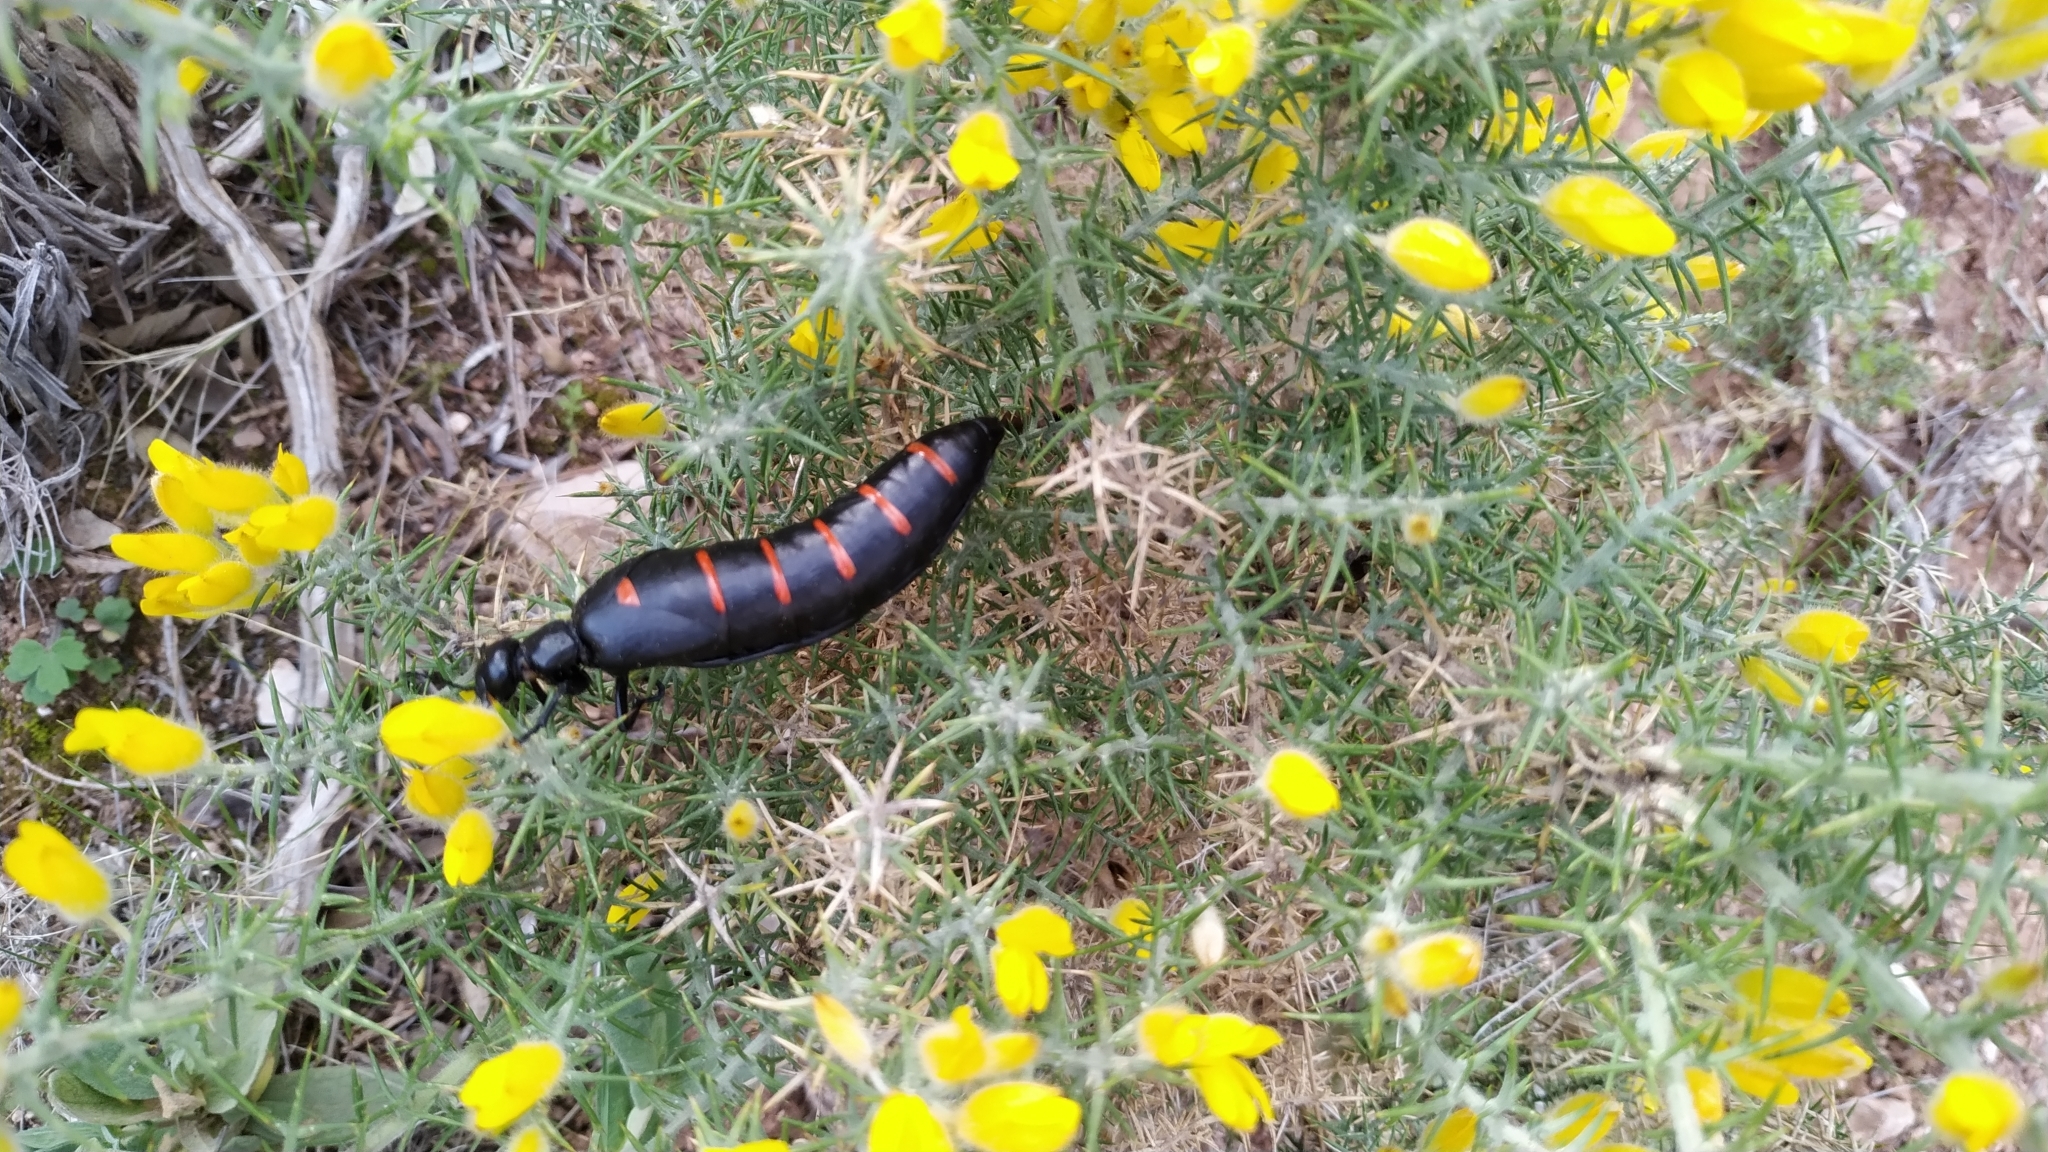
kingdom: Animalia
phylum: Arthropoda
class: Insecta
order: Coleoptera
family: Meloidae
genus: Berberomeloe
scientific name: Berberomeloe payoyo
